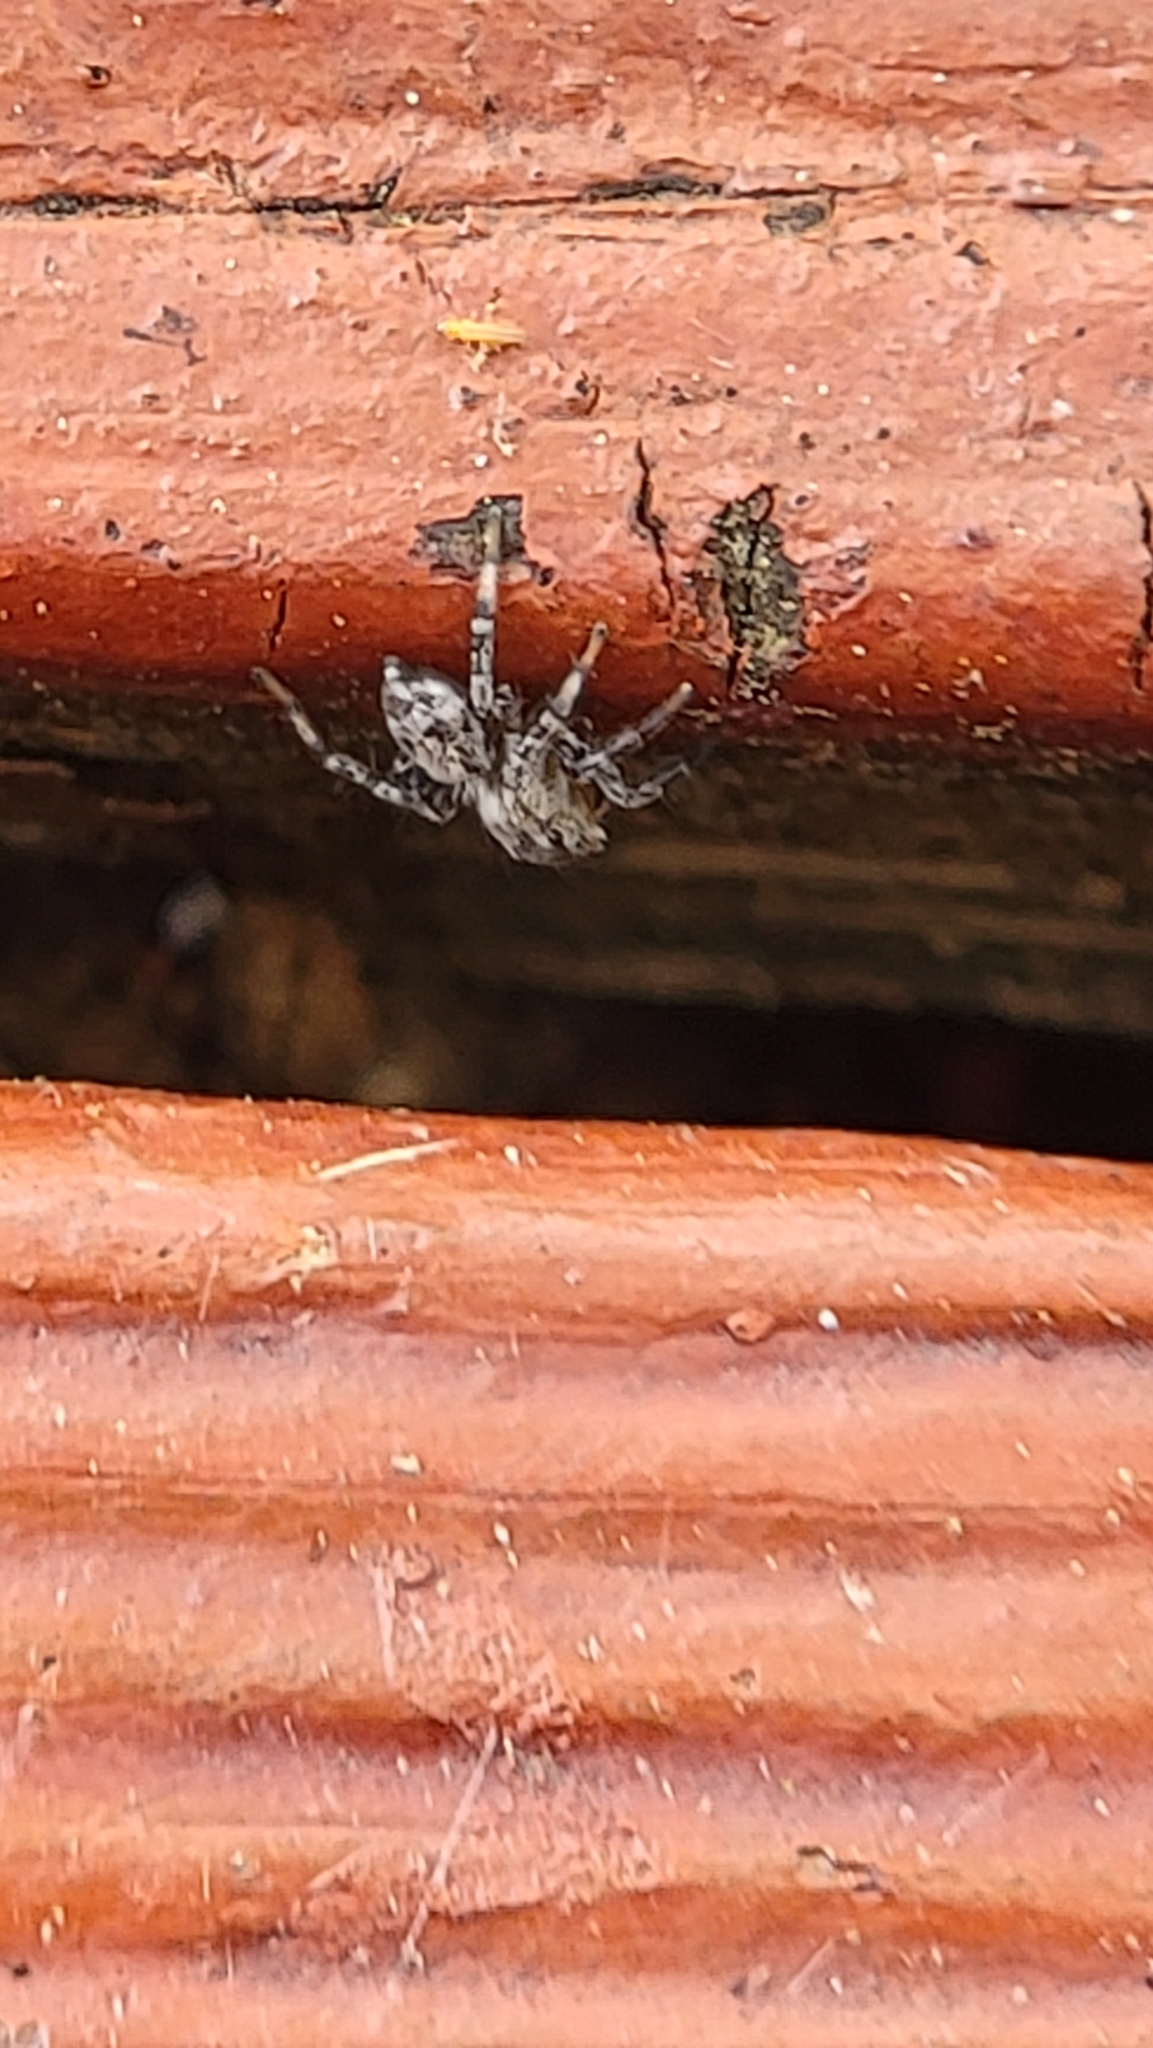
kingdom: Animalia
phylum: Arthropoda
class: Arachnida
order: Araneae
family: Salticidae
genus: Naphrys
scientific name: Naphrys pulex
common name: Flea jumping spider
